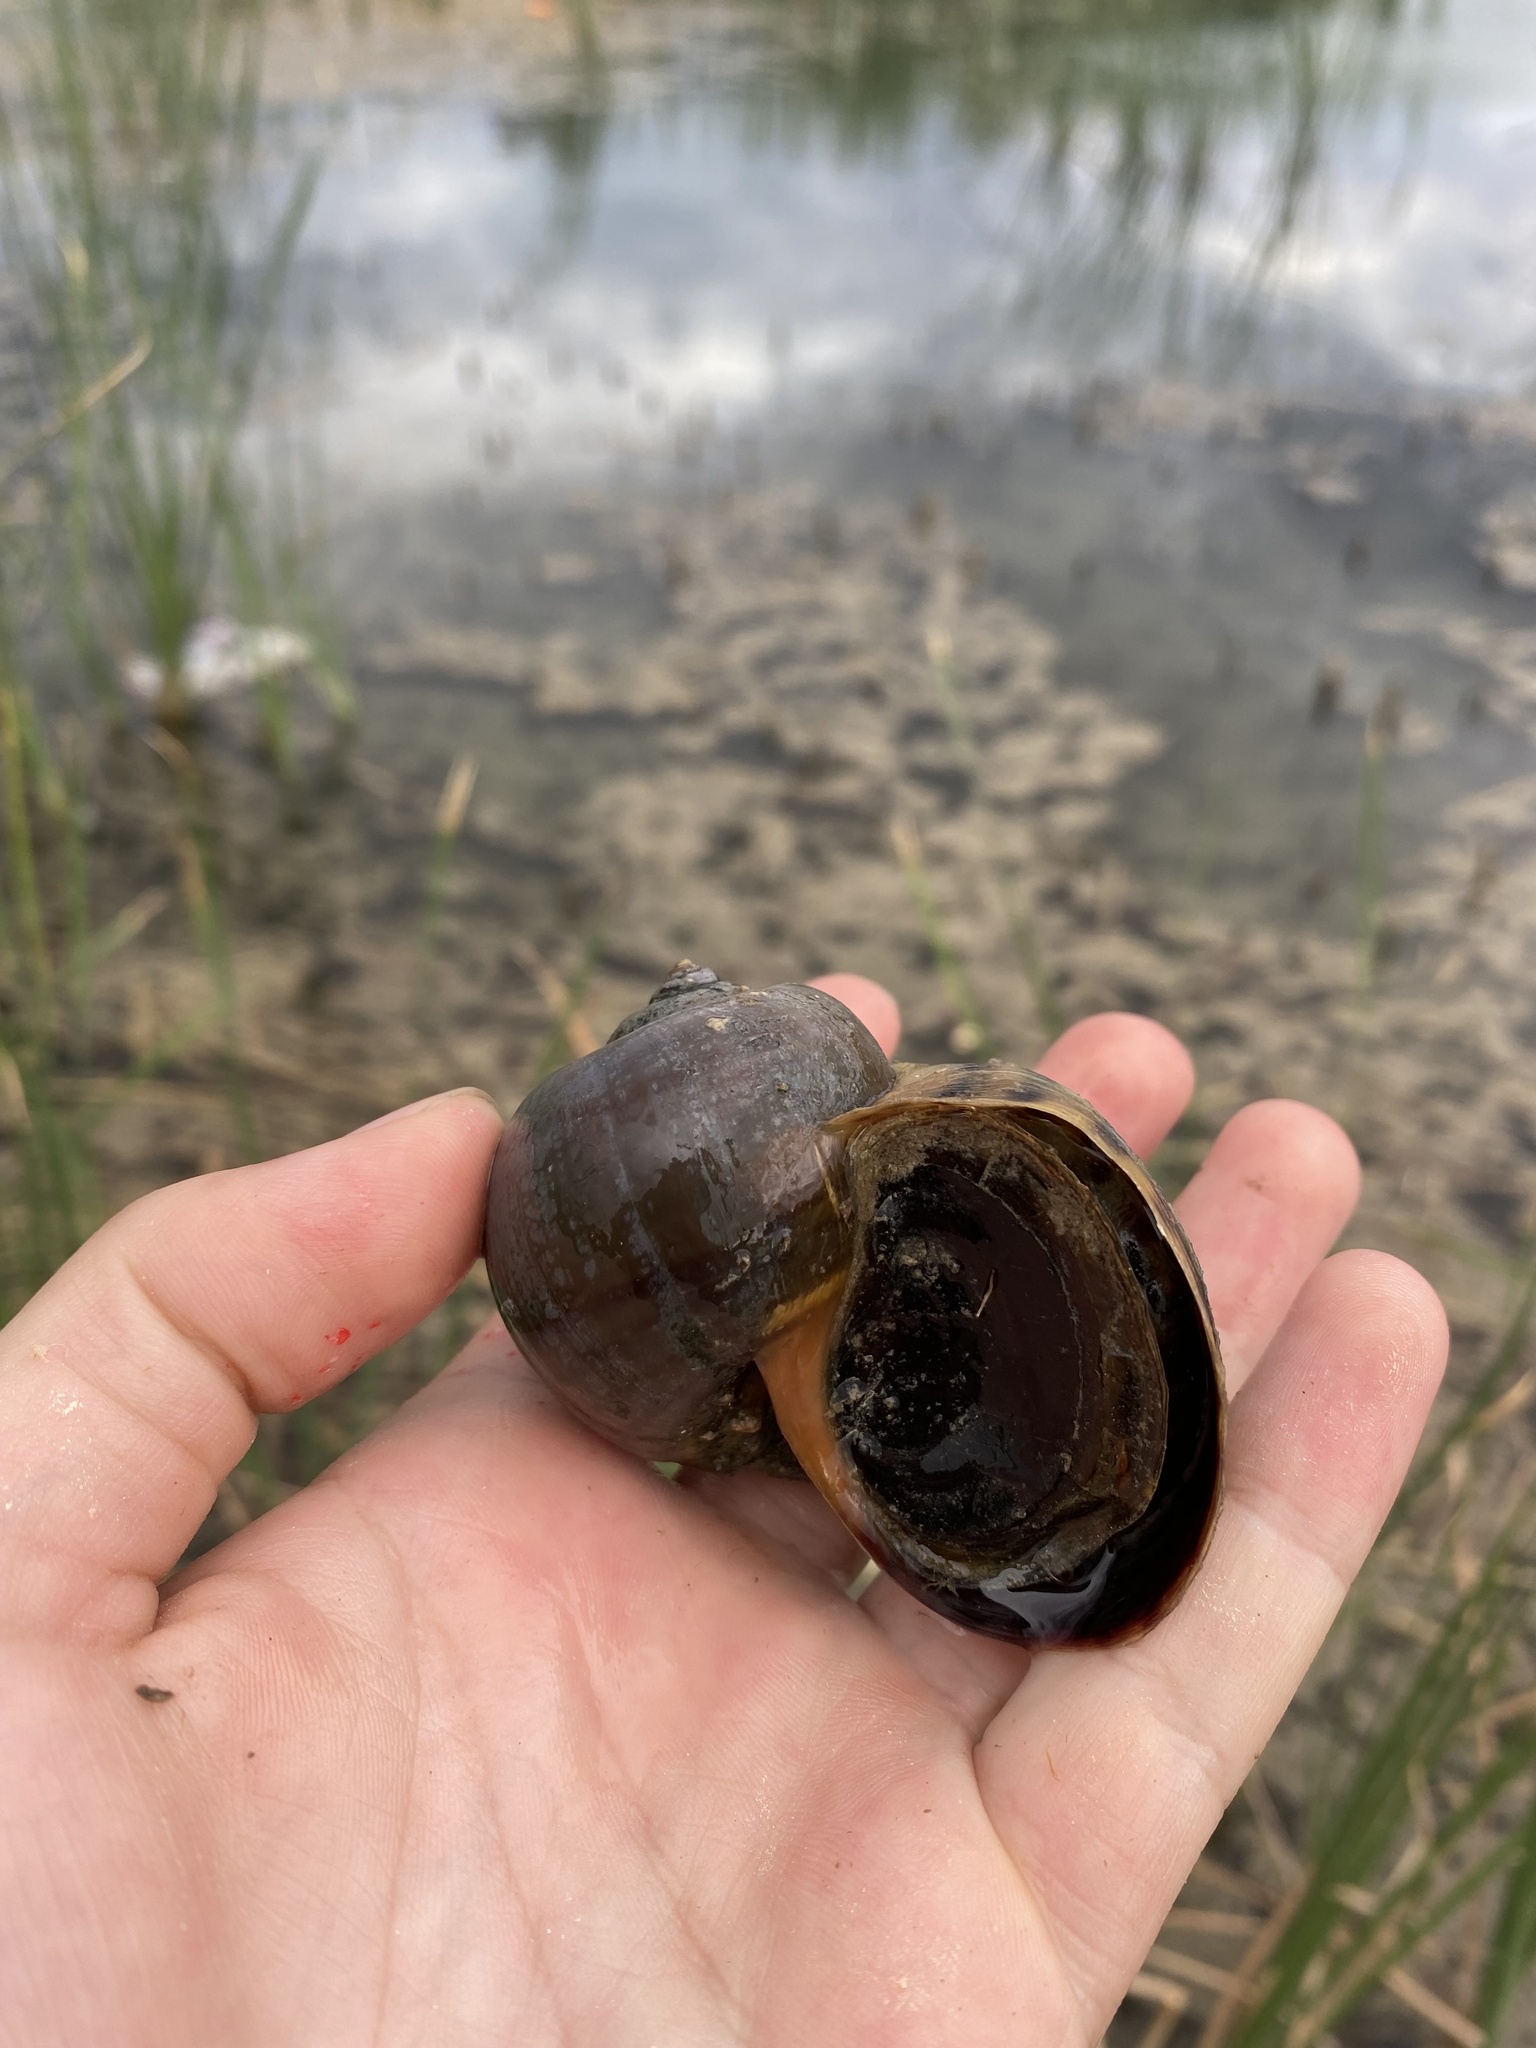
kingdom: Animalia
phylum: Mollusca
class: Gastropoda
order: Architaenioglossa
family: Ampullariidae
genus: Pomacea
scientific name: Pomacea canaliculata
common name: Channeled applesnail
